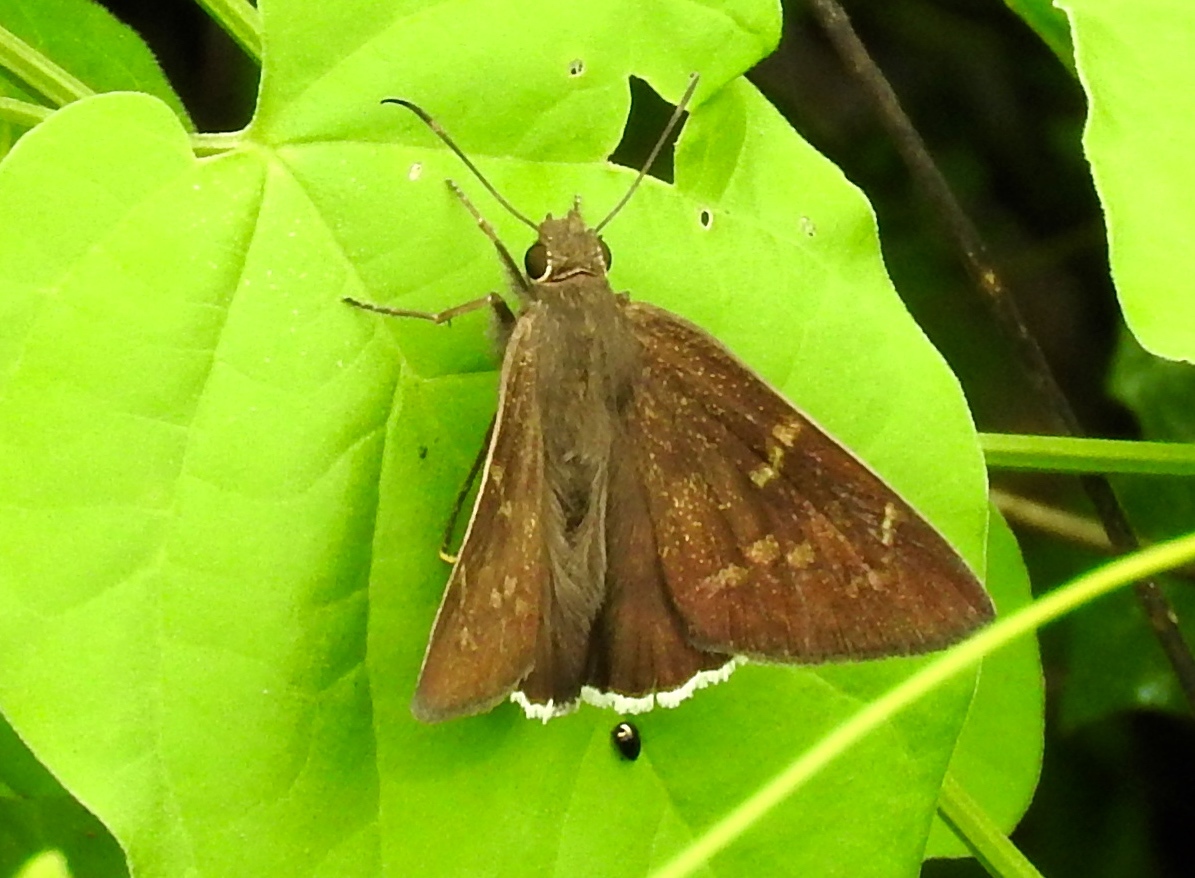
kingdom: Animalia
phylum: Arthropoda
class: Insecta
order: Lepidoptera
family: Hesperiidae
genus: Achalarus
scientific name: Achalarus Murgaria albociliatus
